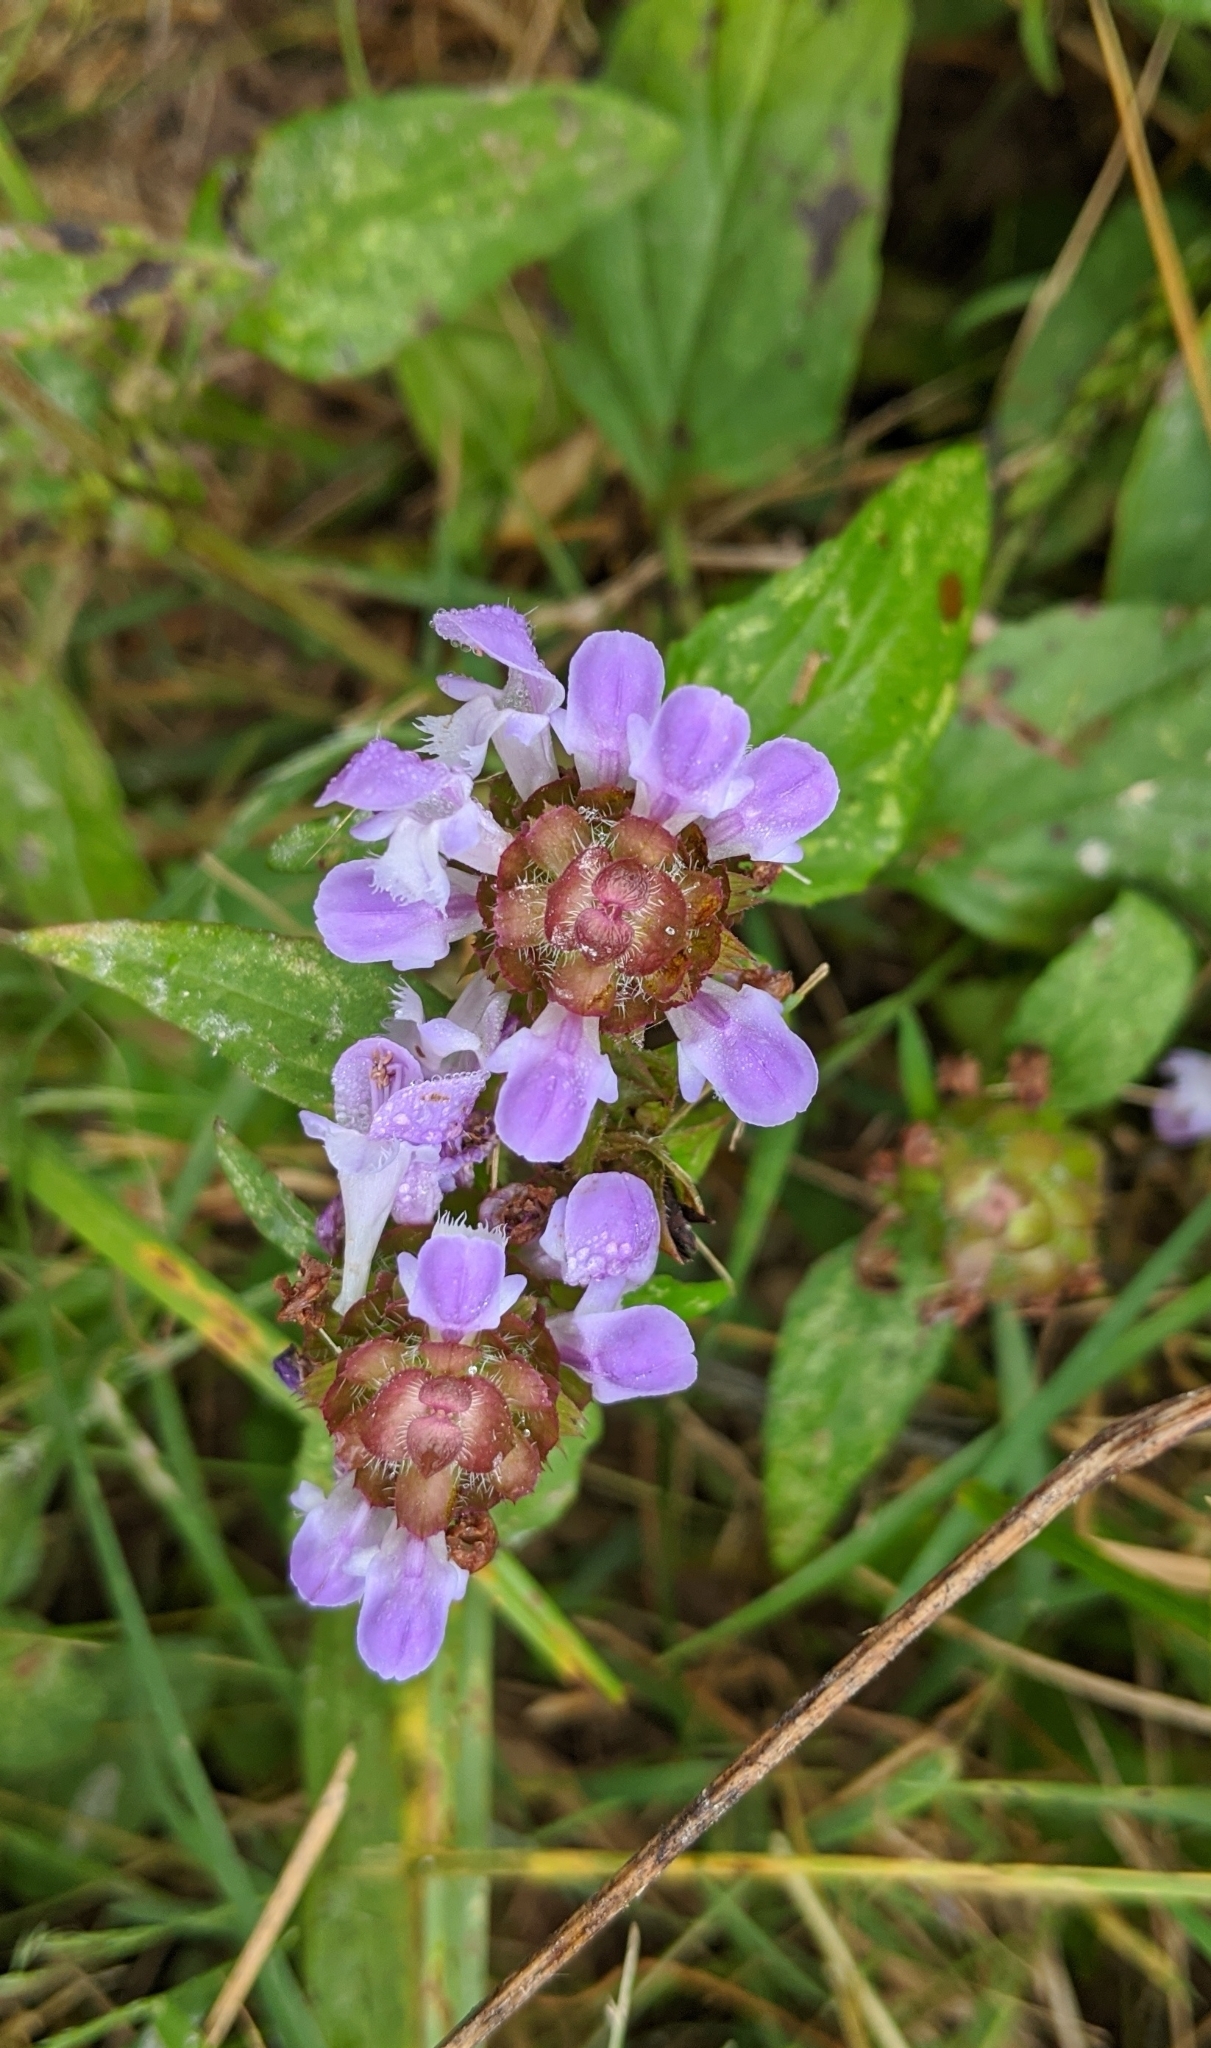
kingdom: Plantae
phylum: Tracheophyta
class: Magnoliopsida
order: Lamiales
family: Lamiaceae
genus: Prunella
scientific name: Prunella vulgaris
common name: Heal-all
